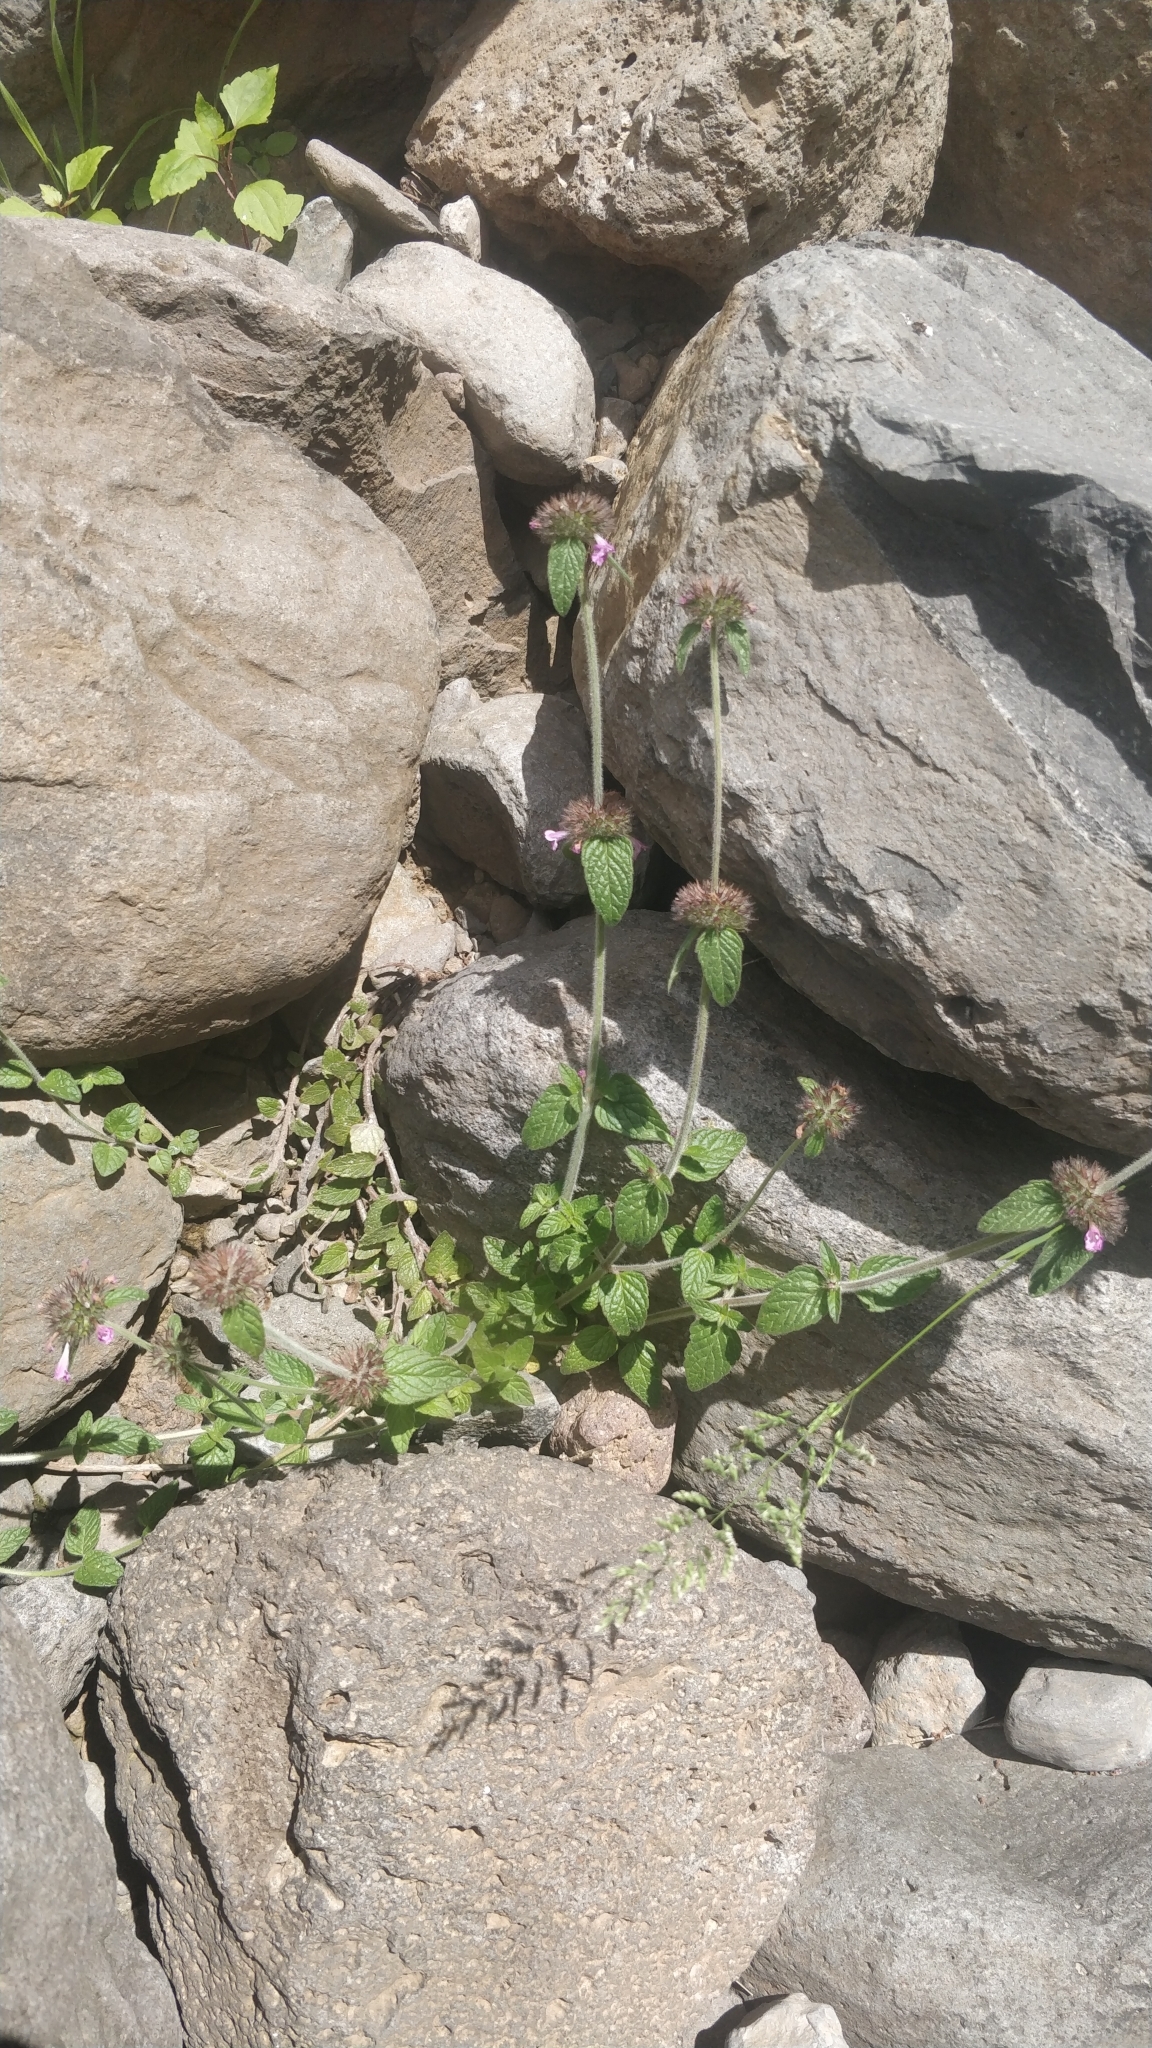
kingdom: Plantae
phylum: Tracheophyta
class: Magnoliopsida
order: Lamiales
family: Lamiaceae
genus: Clinopodium
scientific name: Clinopodium vulgare
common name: Wild basil
